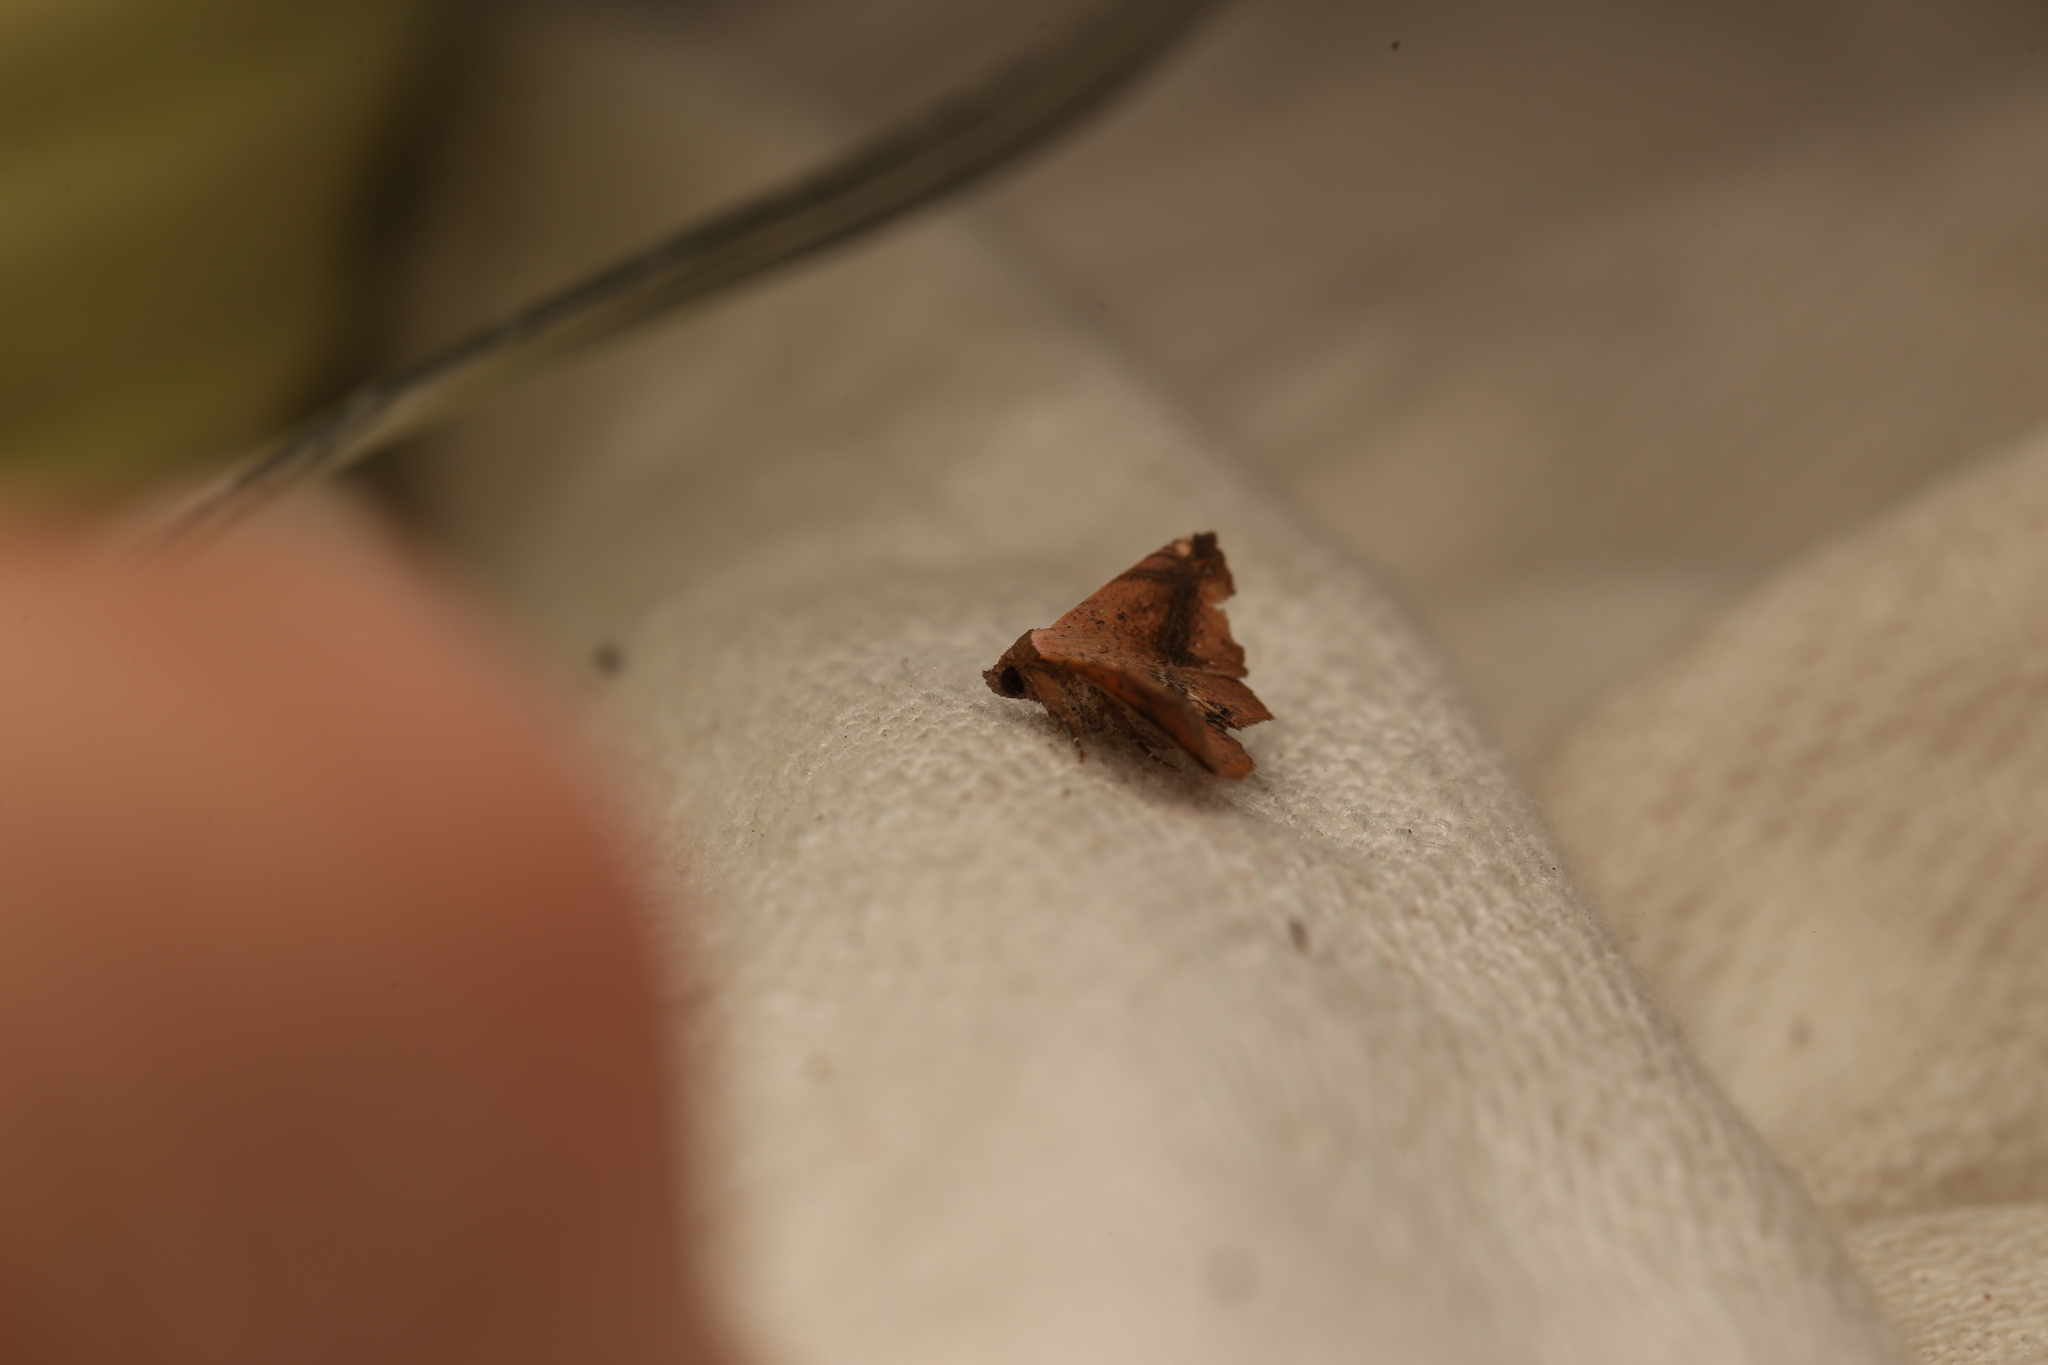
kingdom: Animalia
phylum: Arthropoda
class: Insecta
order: Lepidoptera
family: Noctuidae
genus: Eublemma
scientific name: Eublemma abrupta
